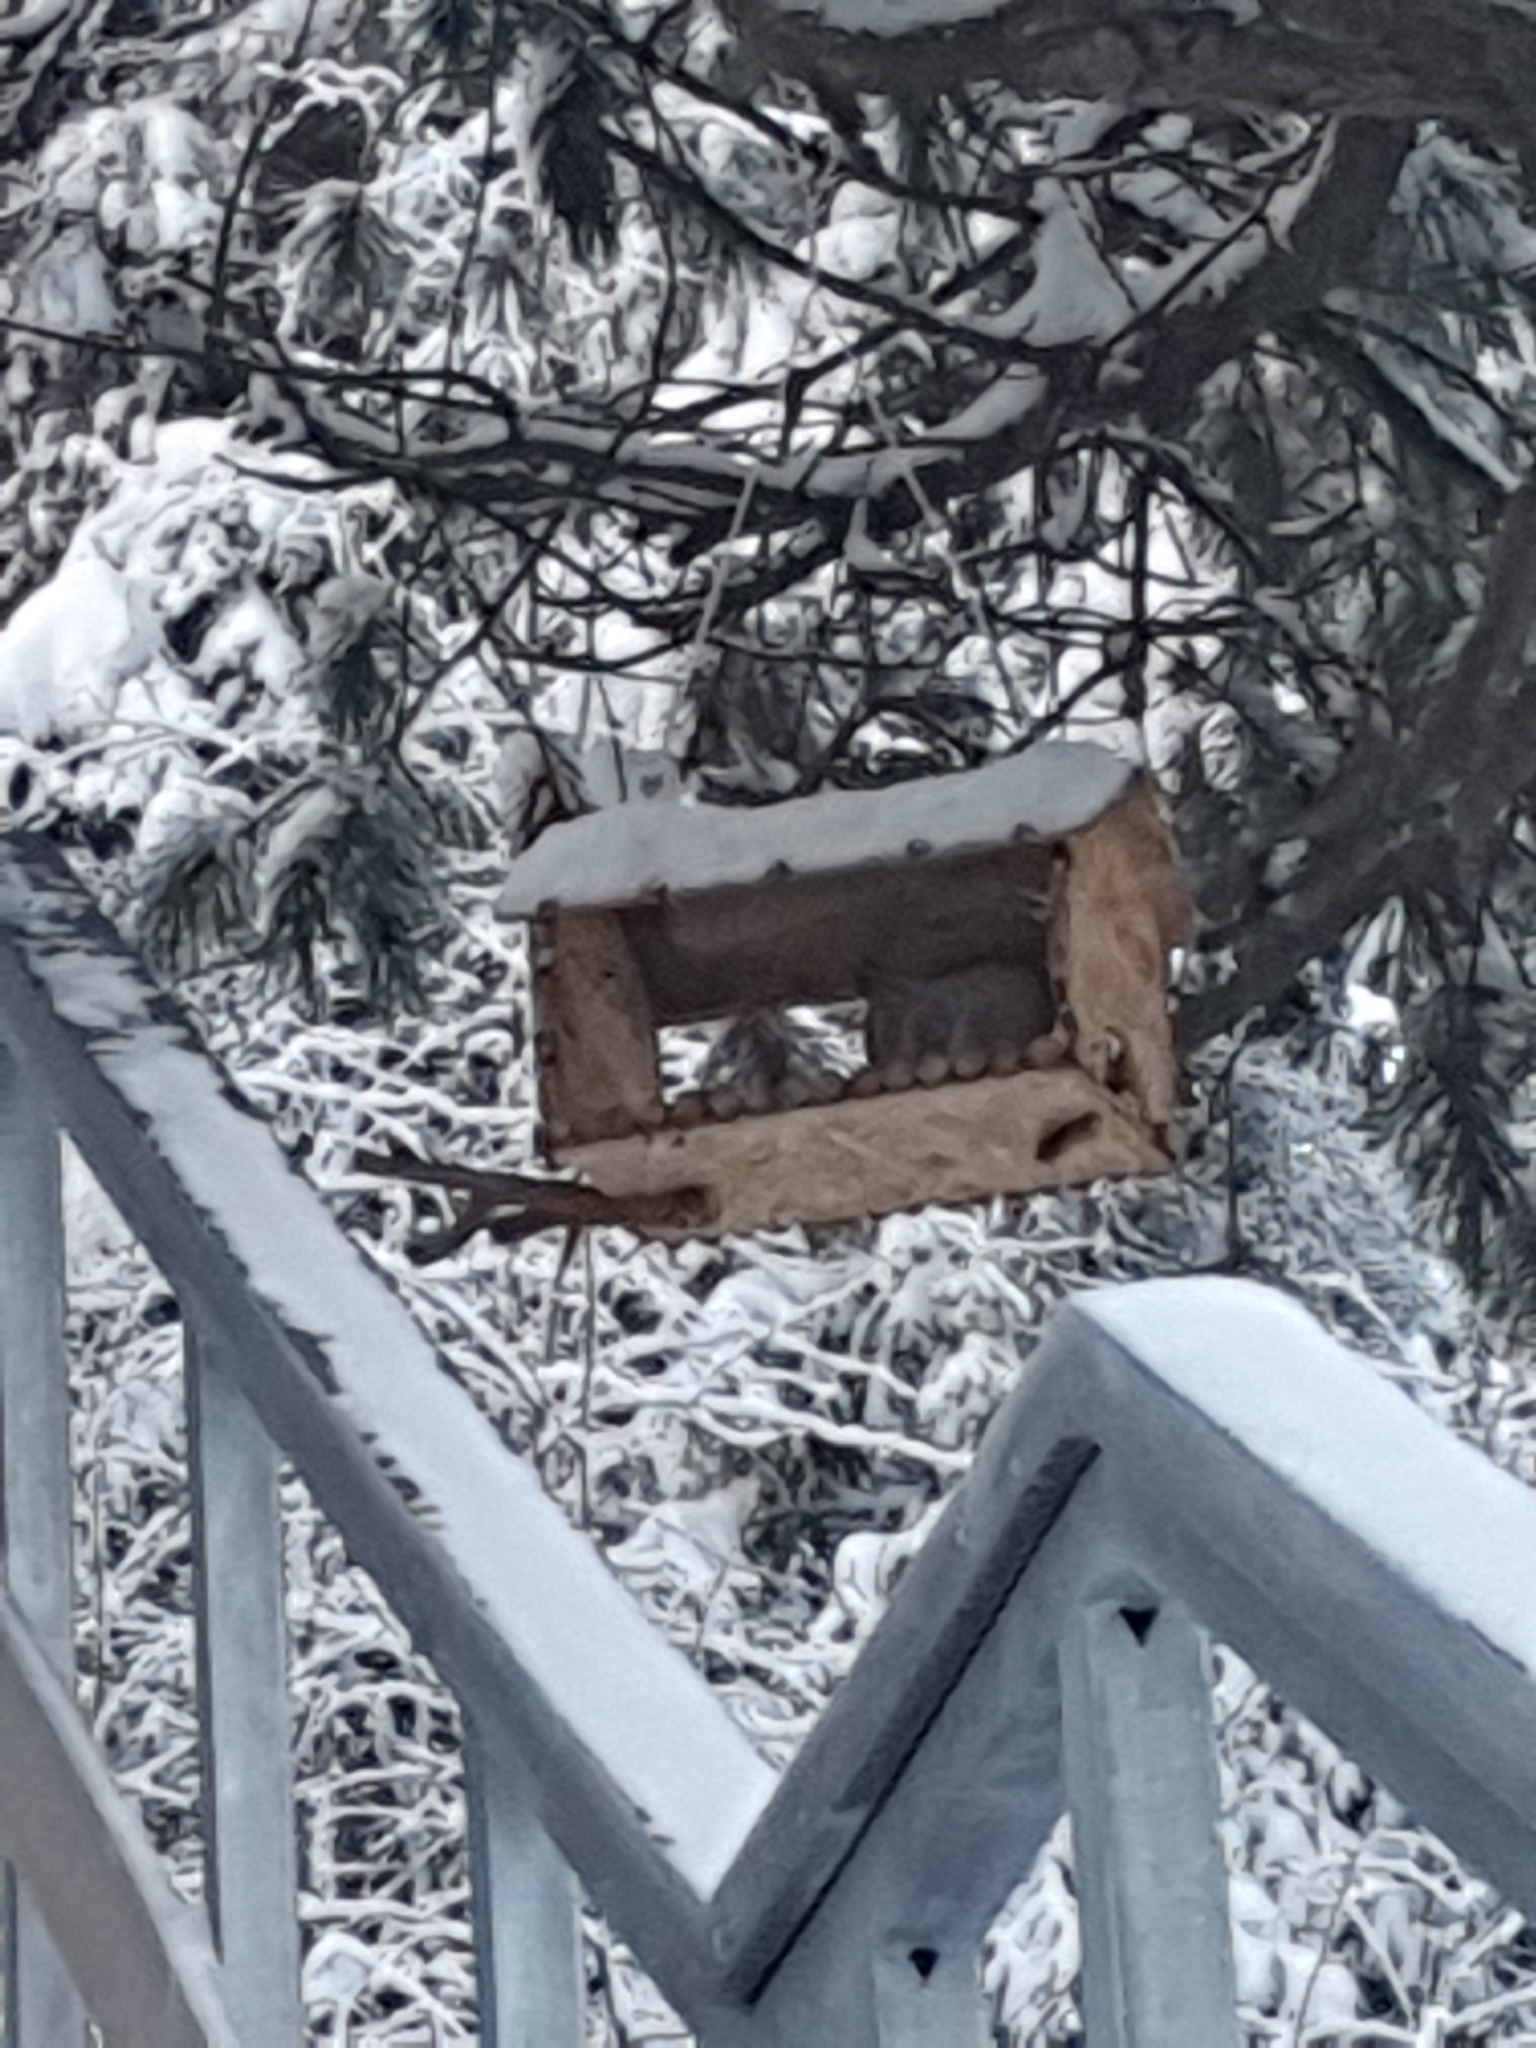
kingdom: Animalia
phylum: Chordata
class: Mammalia
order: Rodentia
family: Sciuridae
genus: Sciurus
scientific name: Sciurus vulgaris
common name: Eurasian red squirrel
